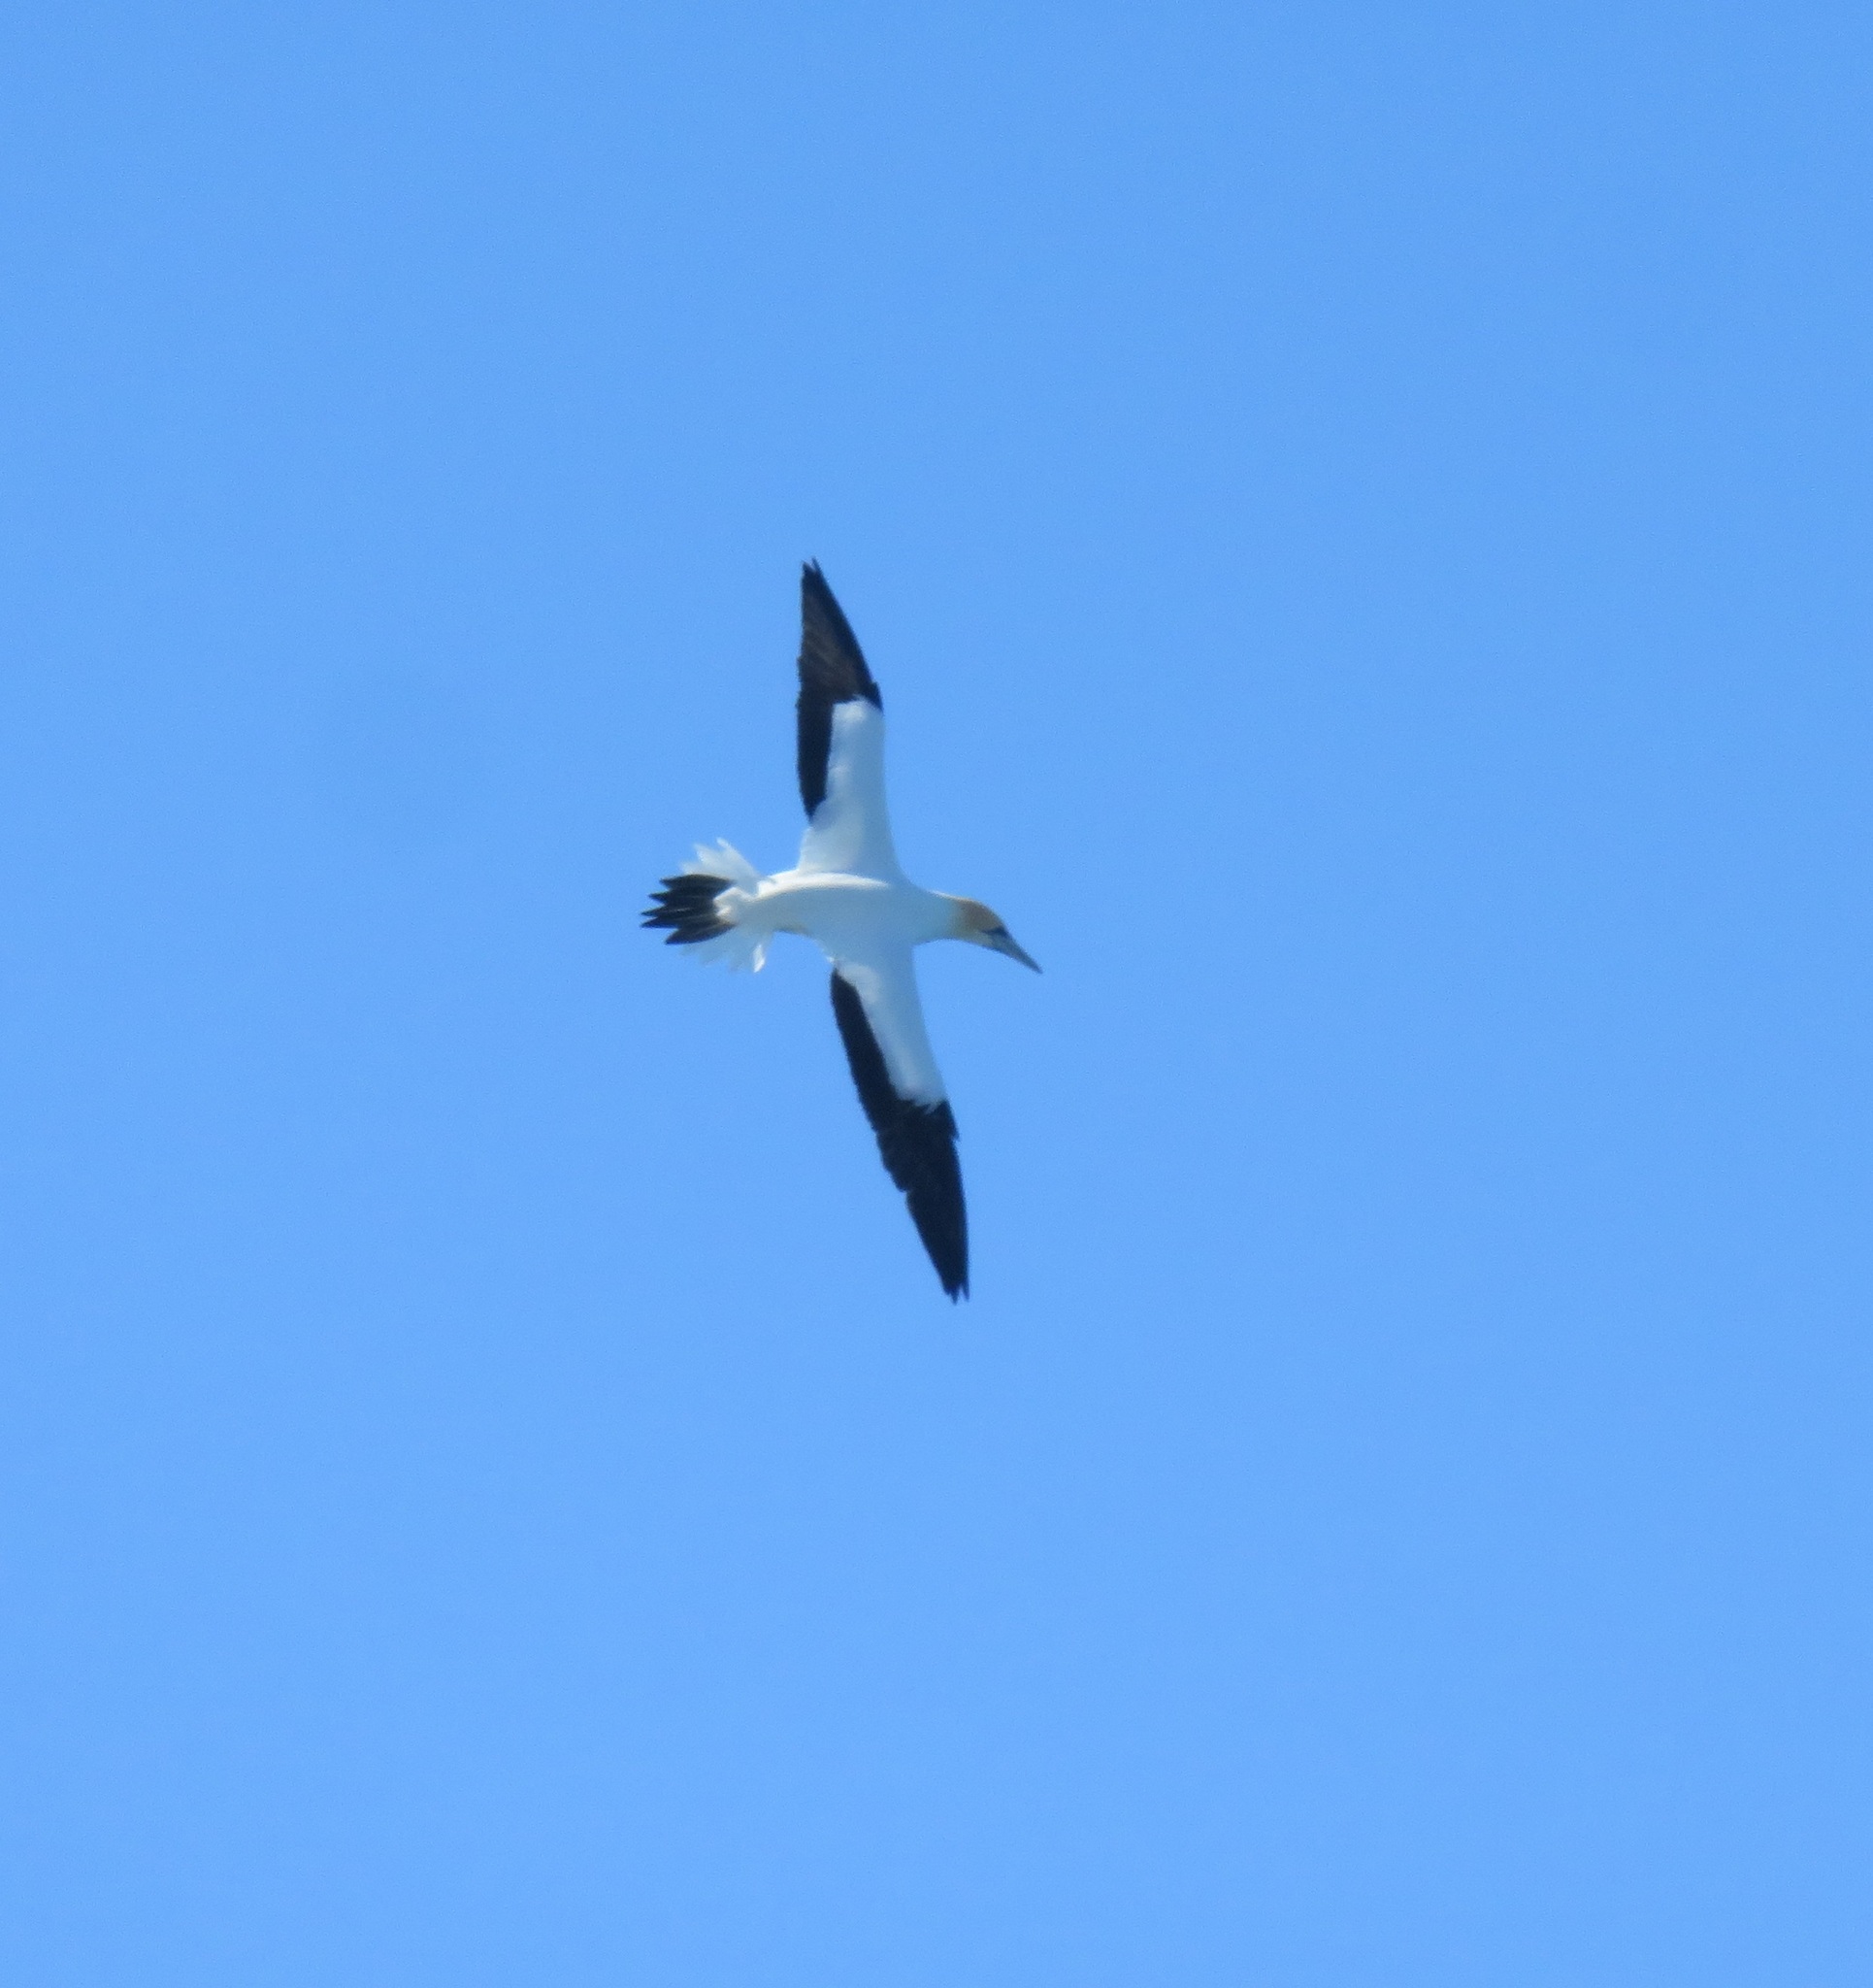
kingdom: Animalia
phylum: Chordata
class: Aves
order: Suliformes
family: Sulidae
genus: Morus
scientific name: Morus serrator
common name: Australasian gannet
